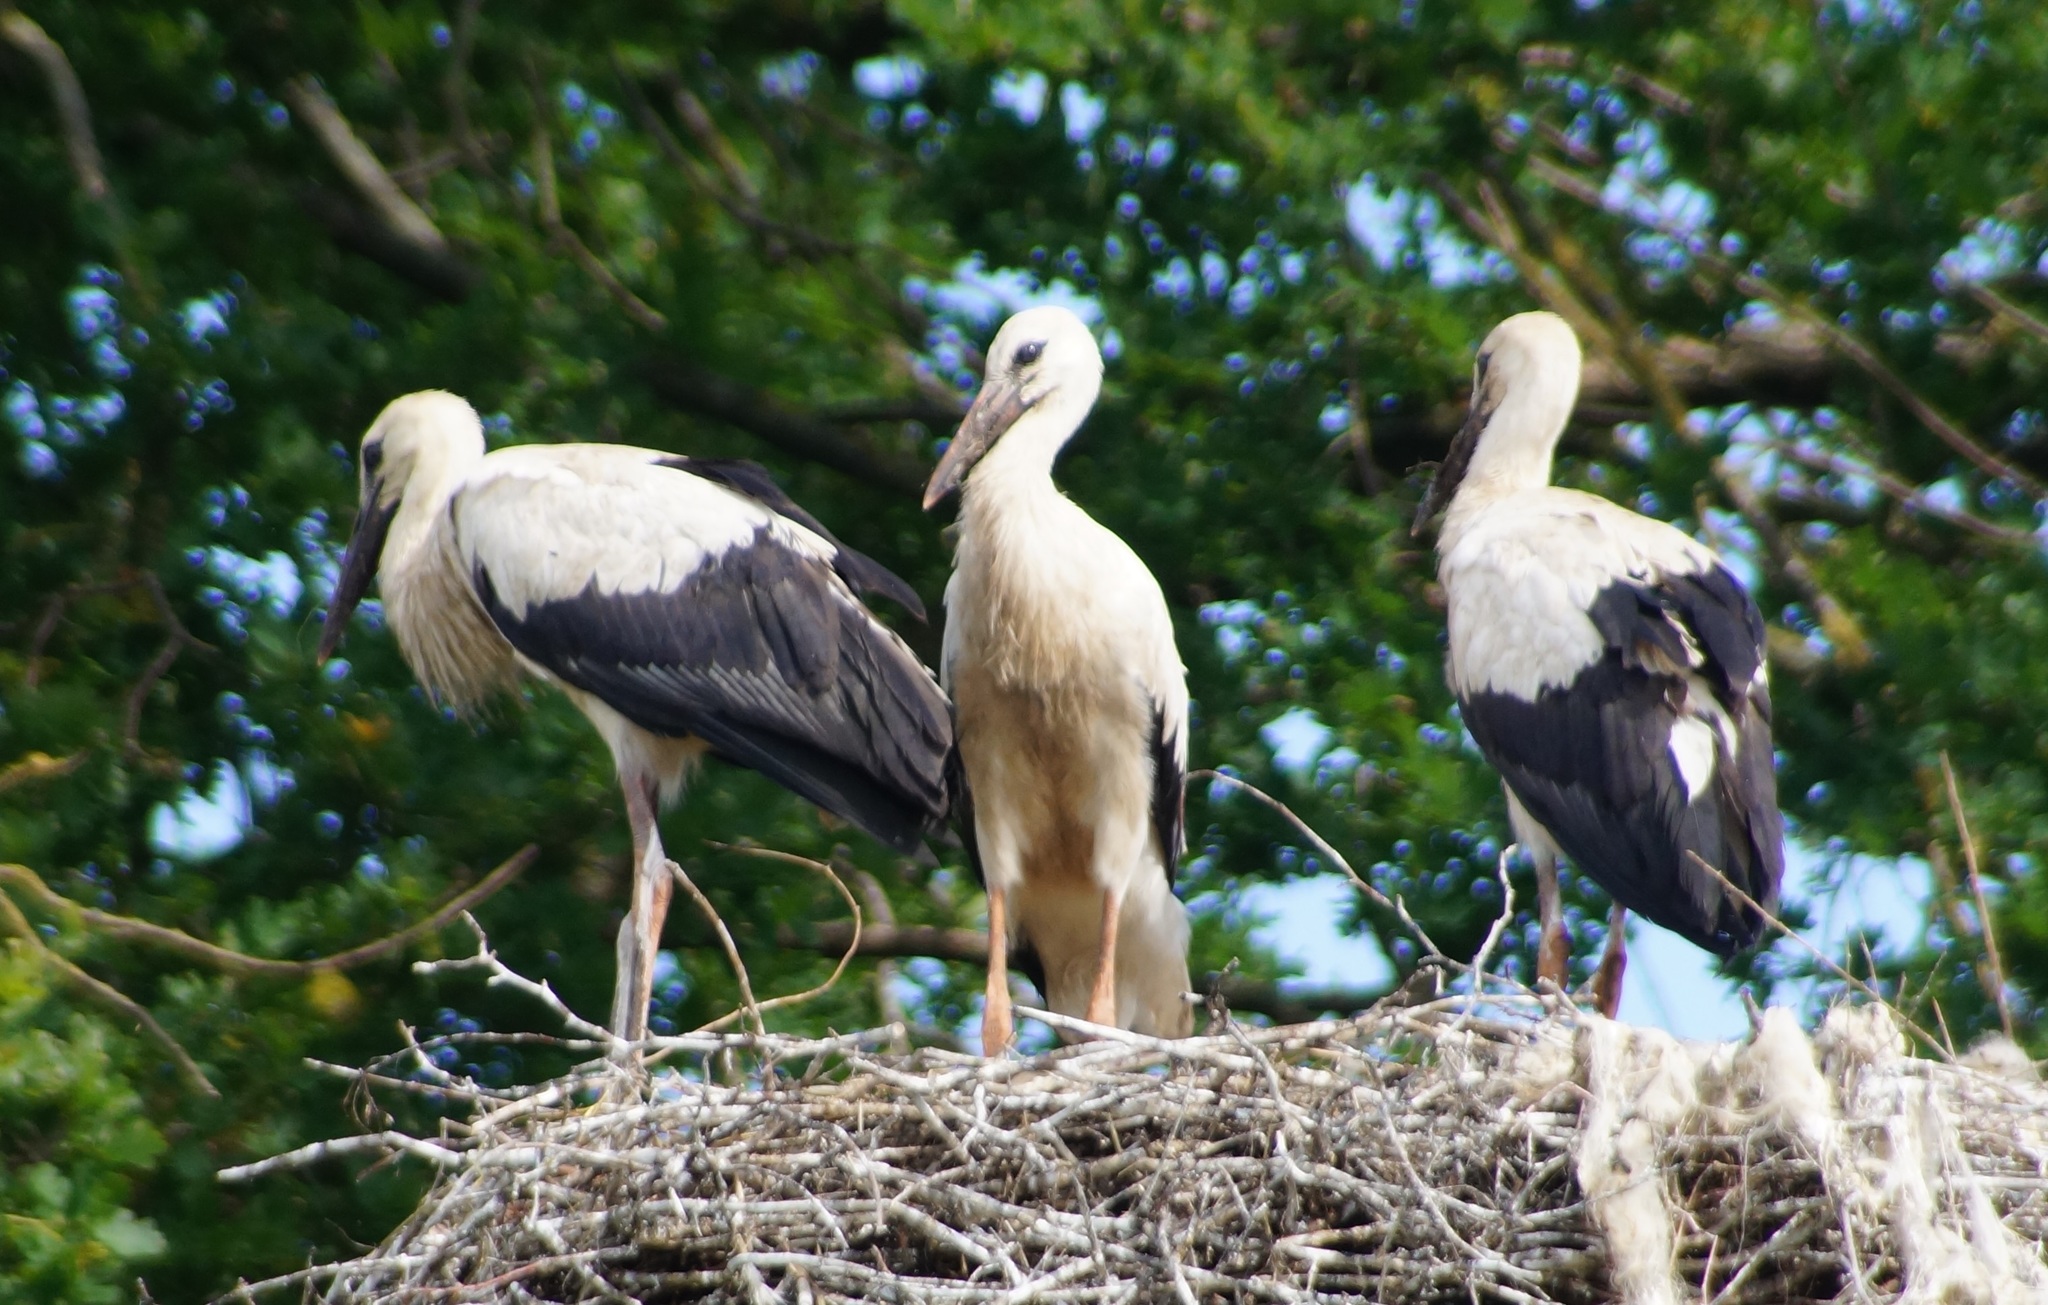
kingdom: Animalia
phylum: Chordata
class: Aves
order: Ciconiiformes
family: Ciconiidae
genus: Ciconia
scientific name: Ciconia ciconia
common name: White stork
